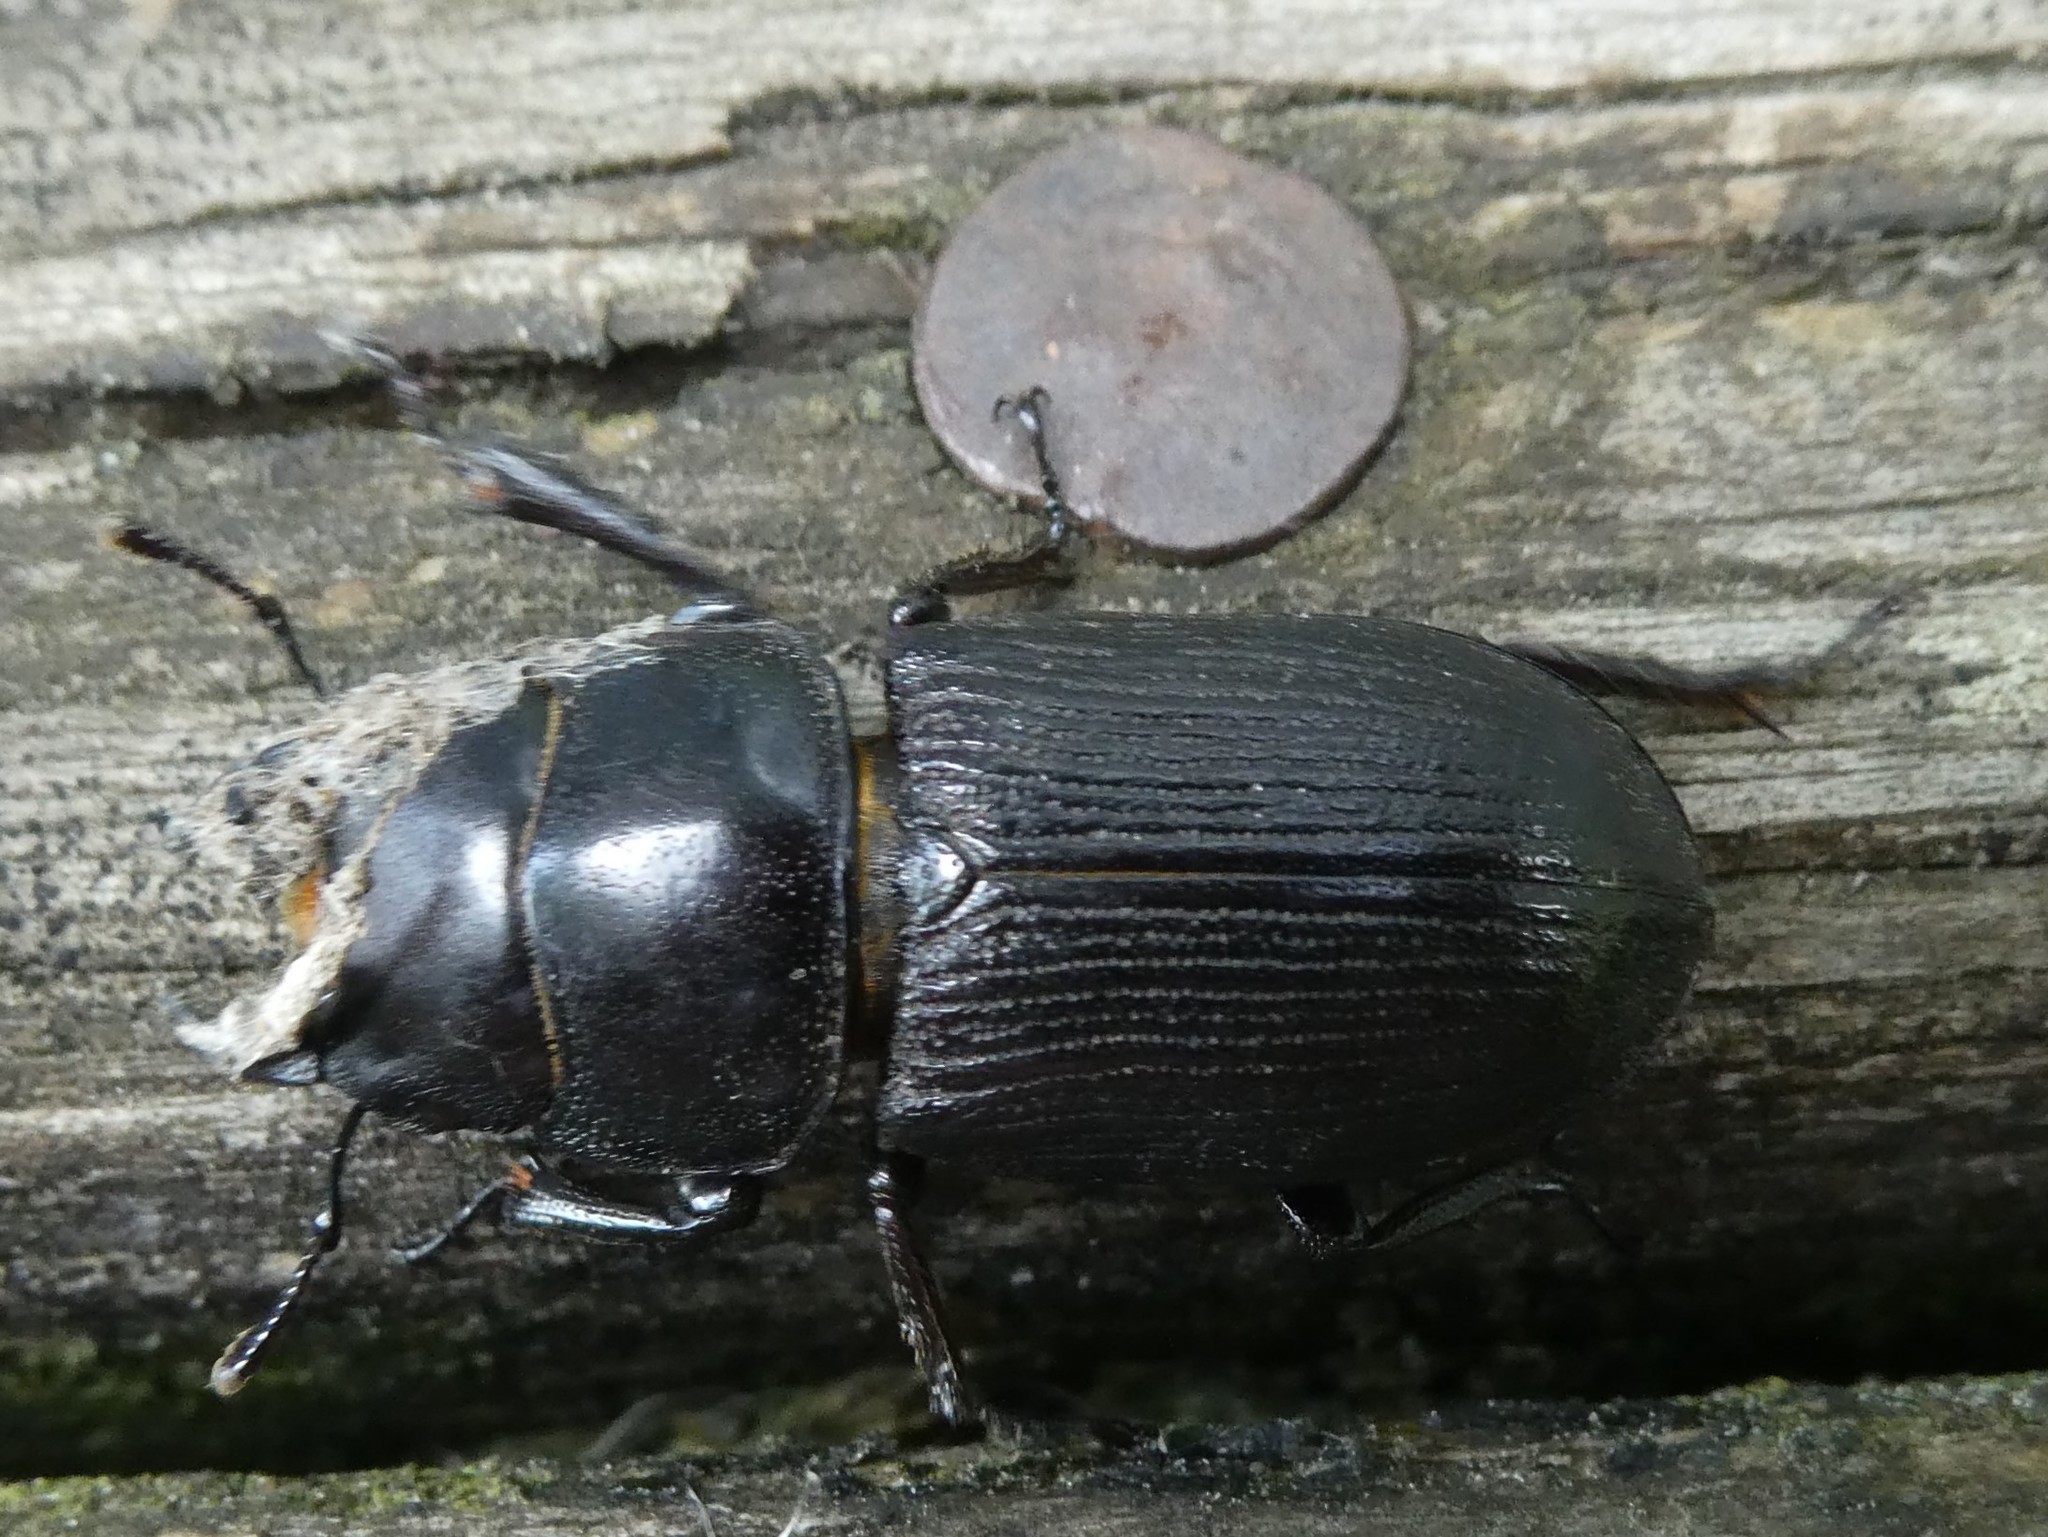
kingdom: Animalia
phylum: Arthropoda
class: Insecta
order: Coleoptera
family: Lucanidae
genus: Dorcus
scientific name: Dorcus parallelus
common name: Antelope beetle
